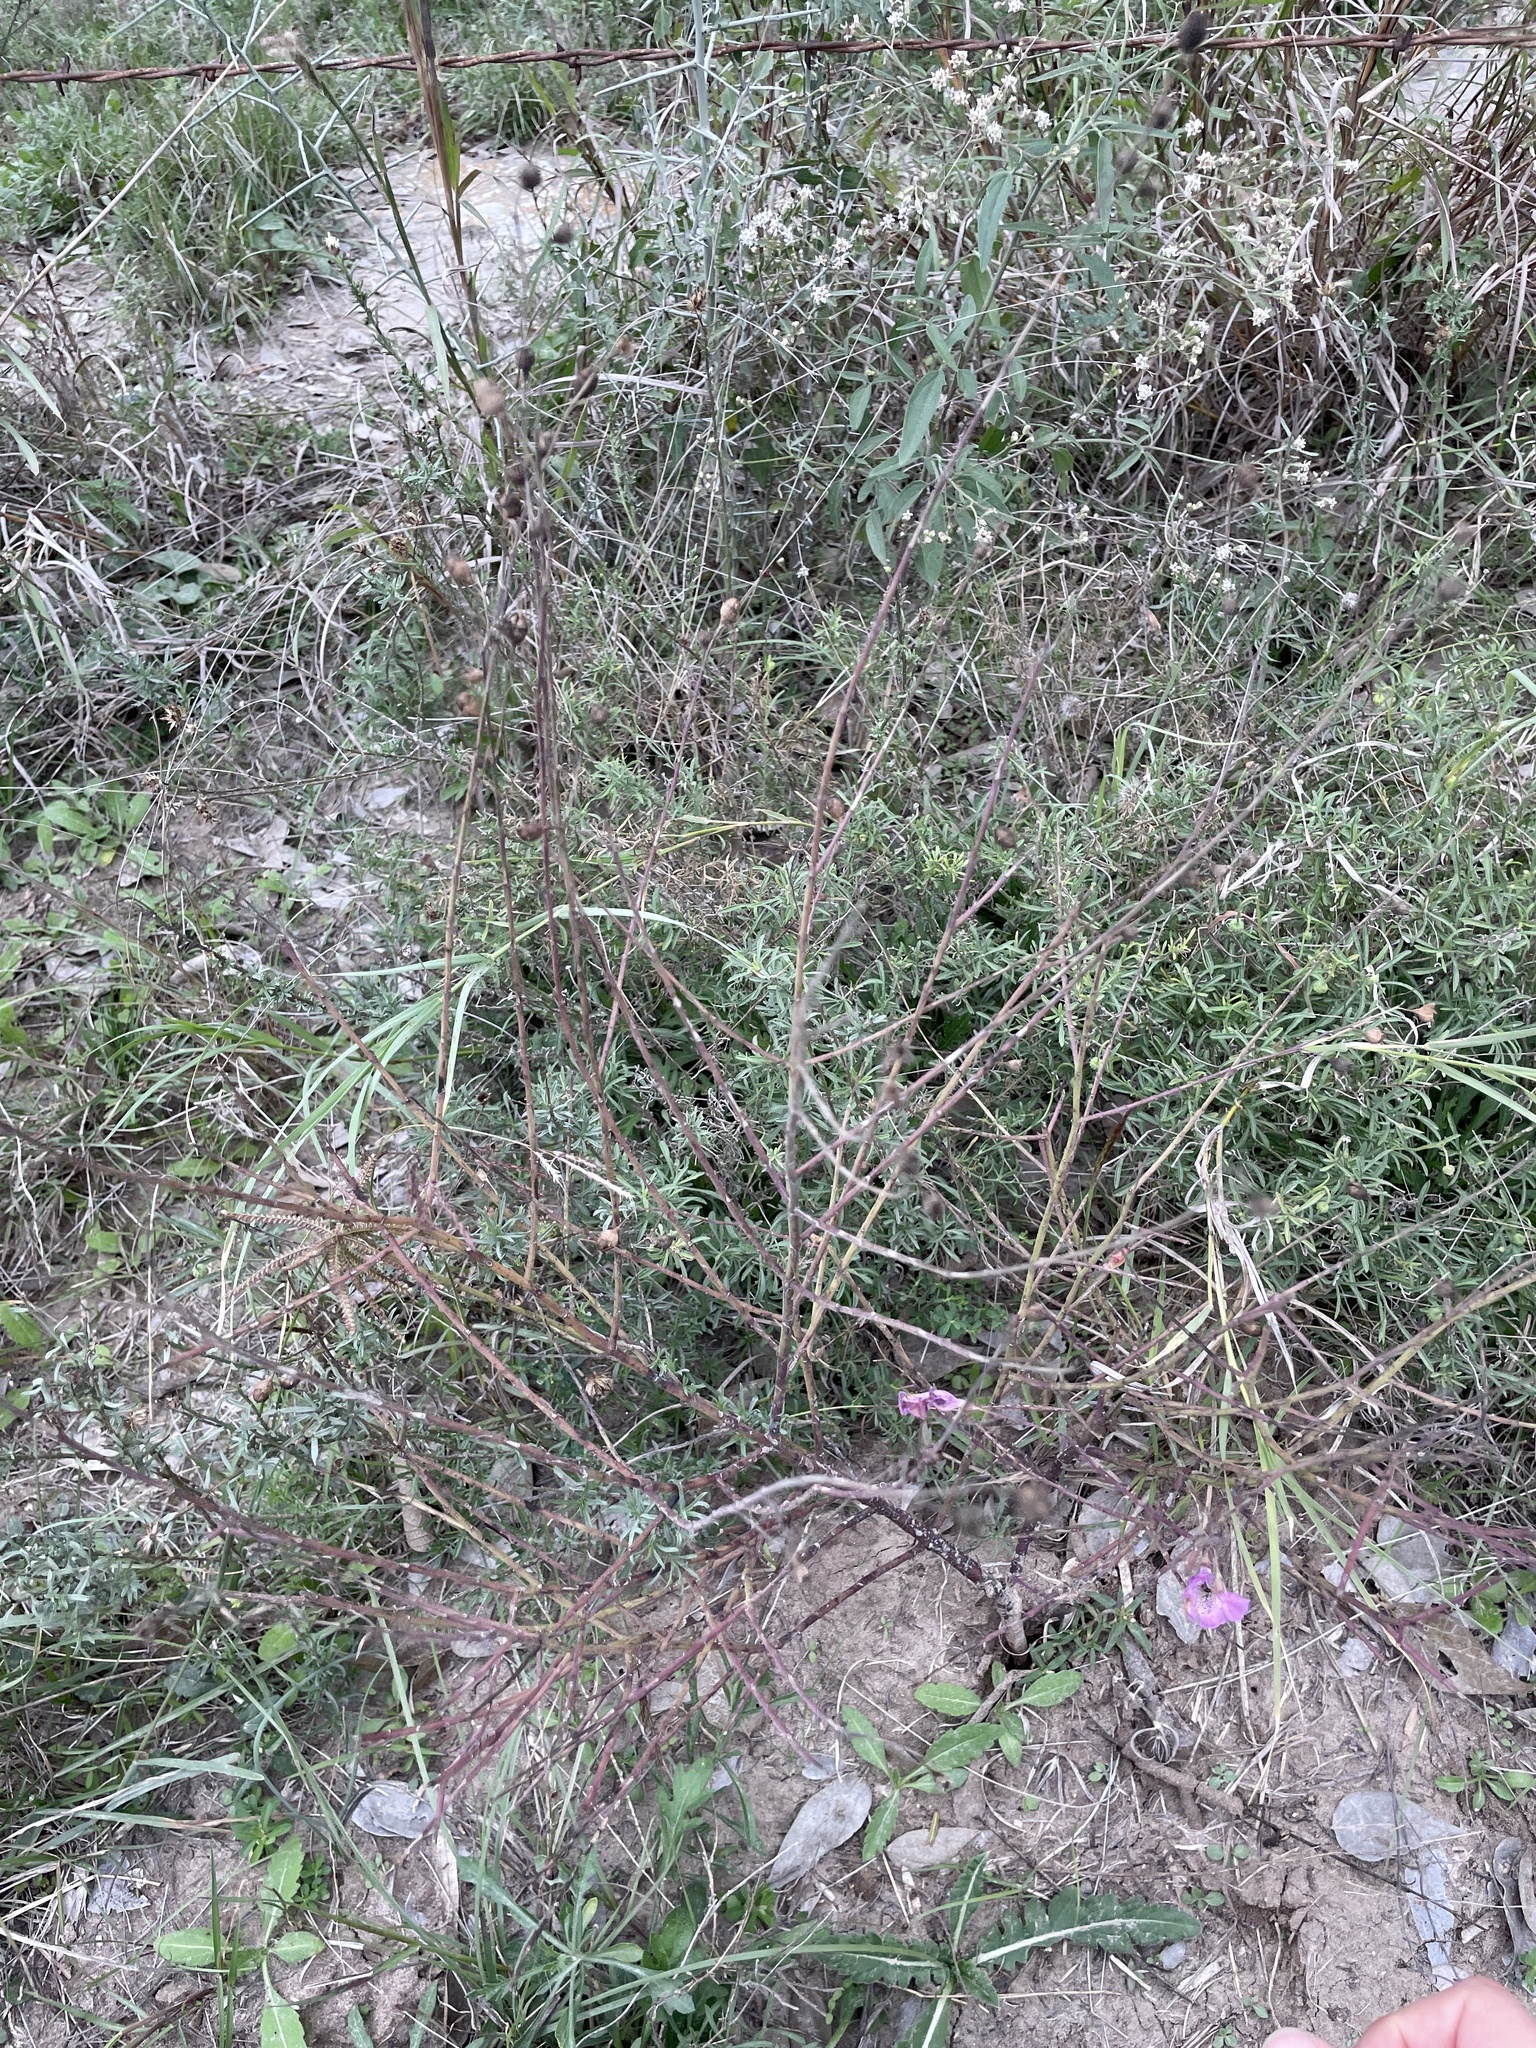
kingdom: Plantae
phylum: Tracheophyta
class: Magnoliopsida
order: Lamiales
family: Orobanchaceae
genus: Agalinis
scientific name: Agalinis strictifolia
